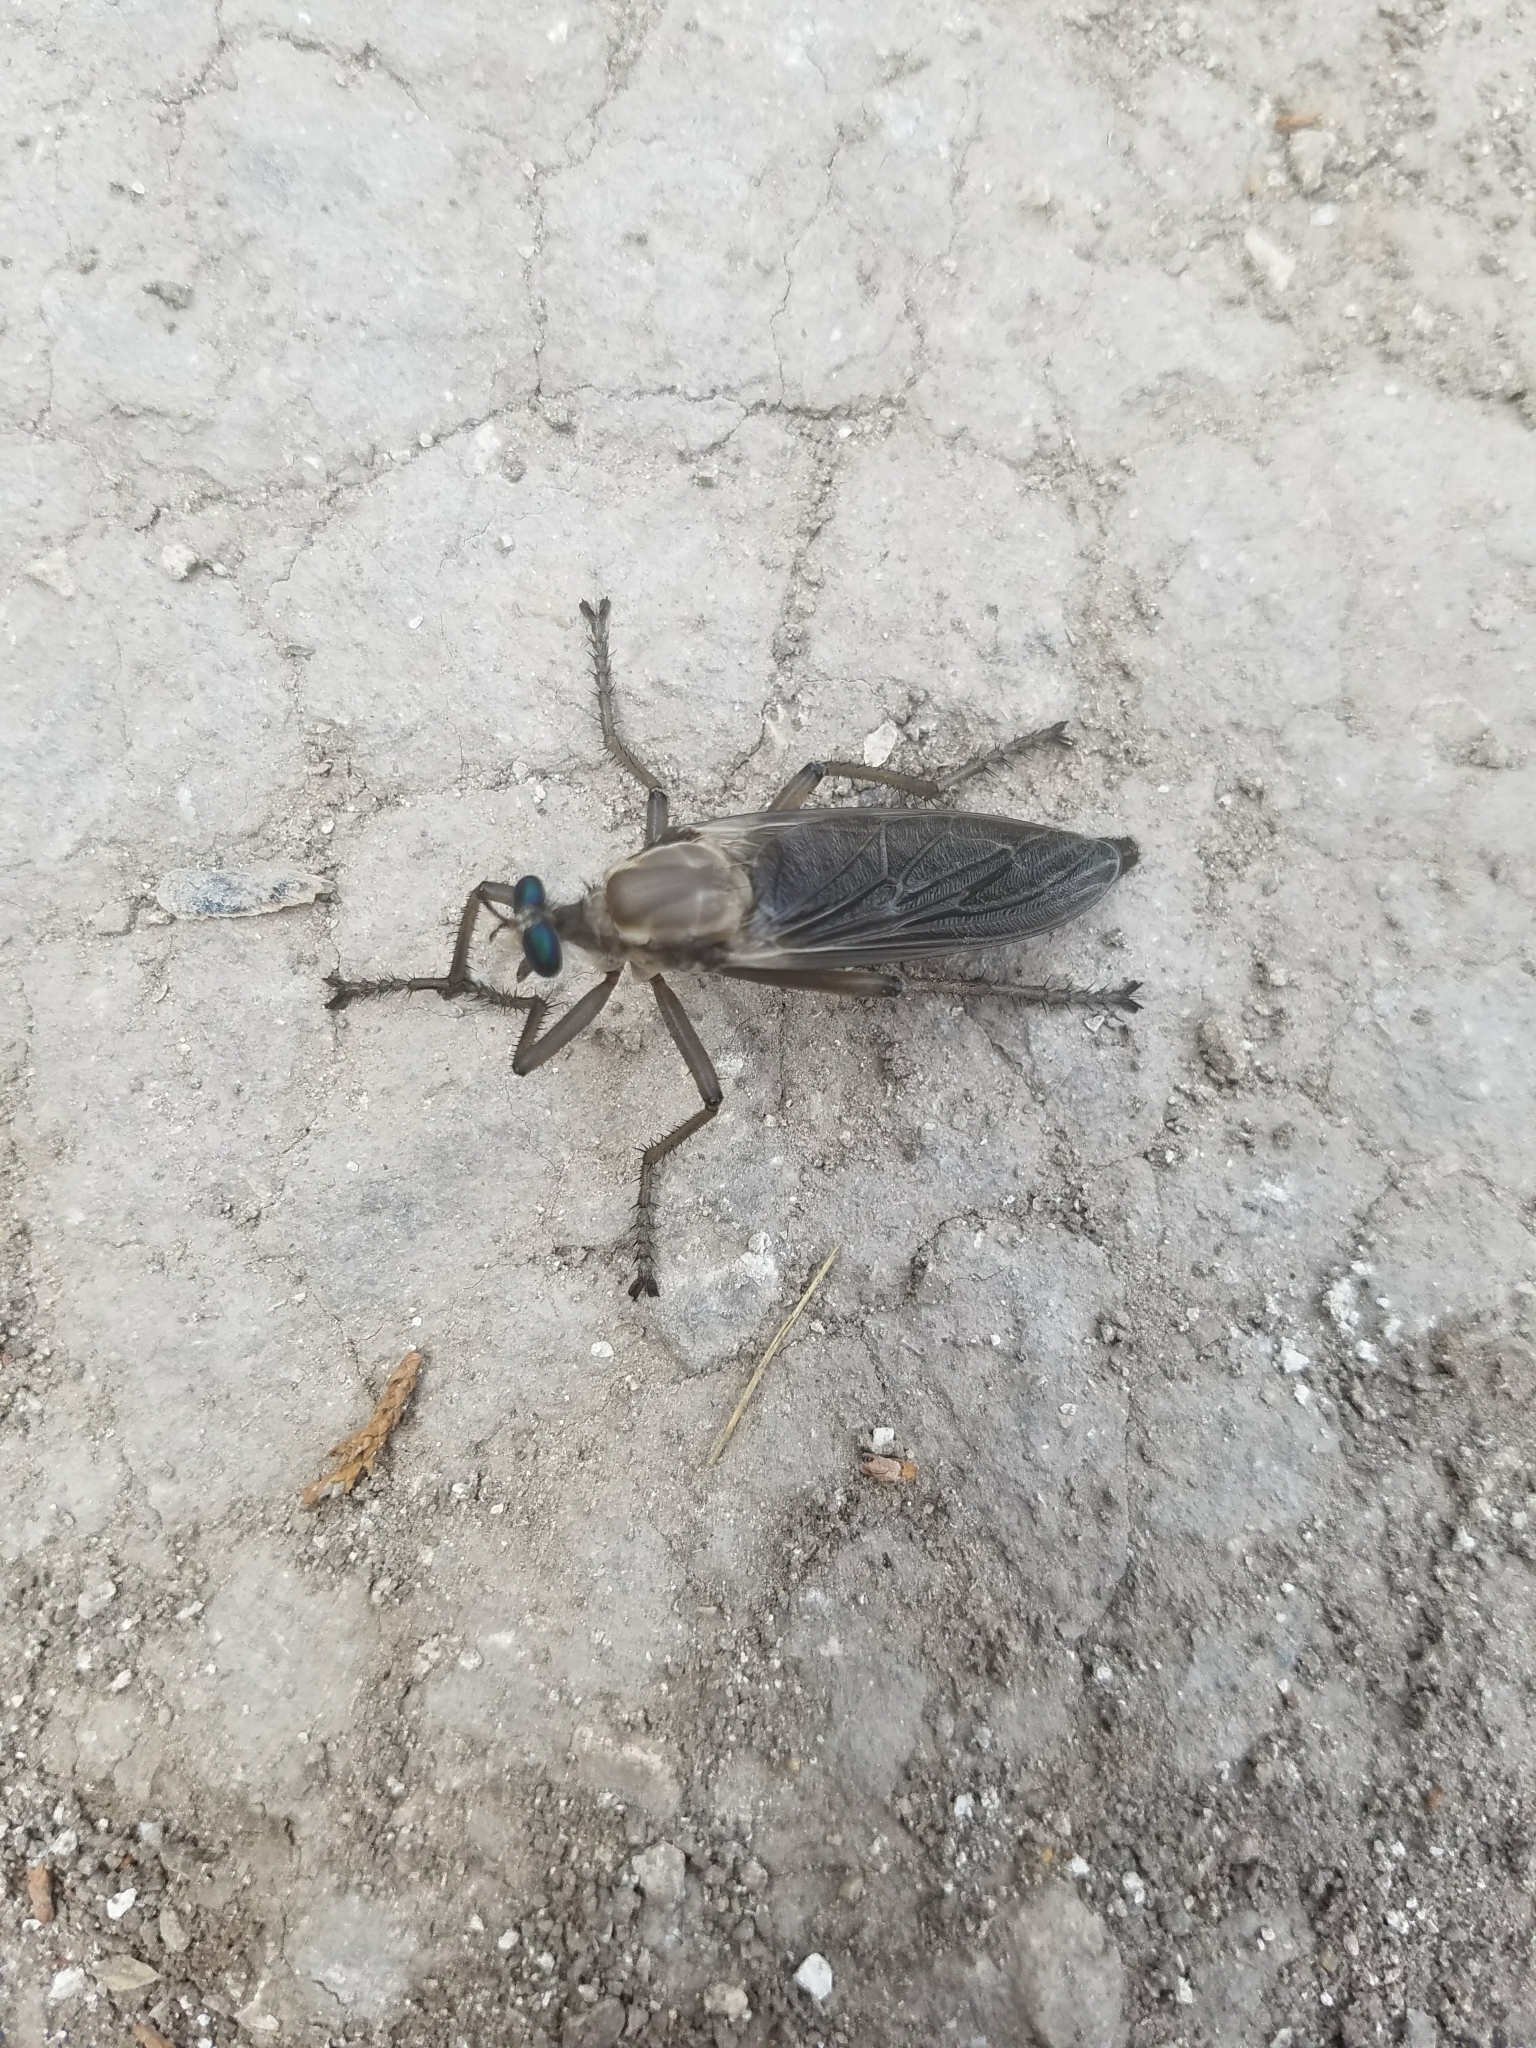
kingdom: Animalia
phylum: Arthropoda
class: Insecta
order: Diptera
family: Asilidae
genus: Microstylum
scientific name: Microstylum morosum
